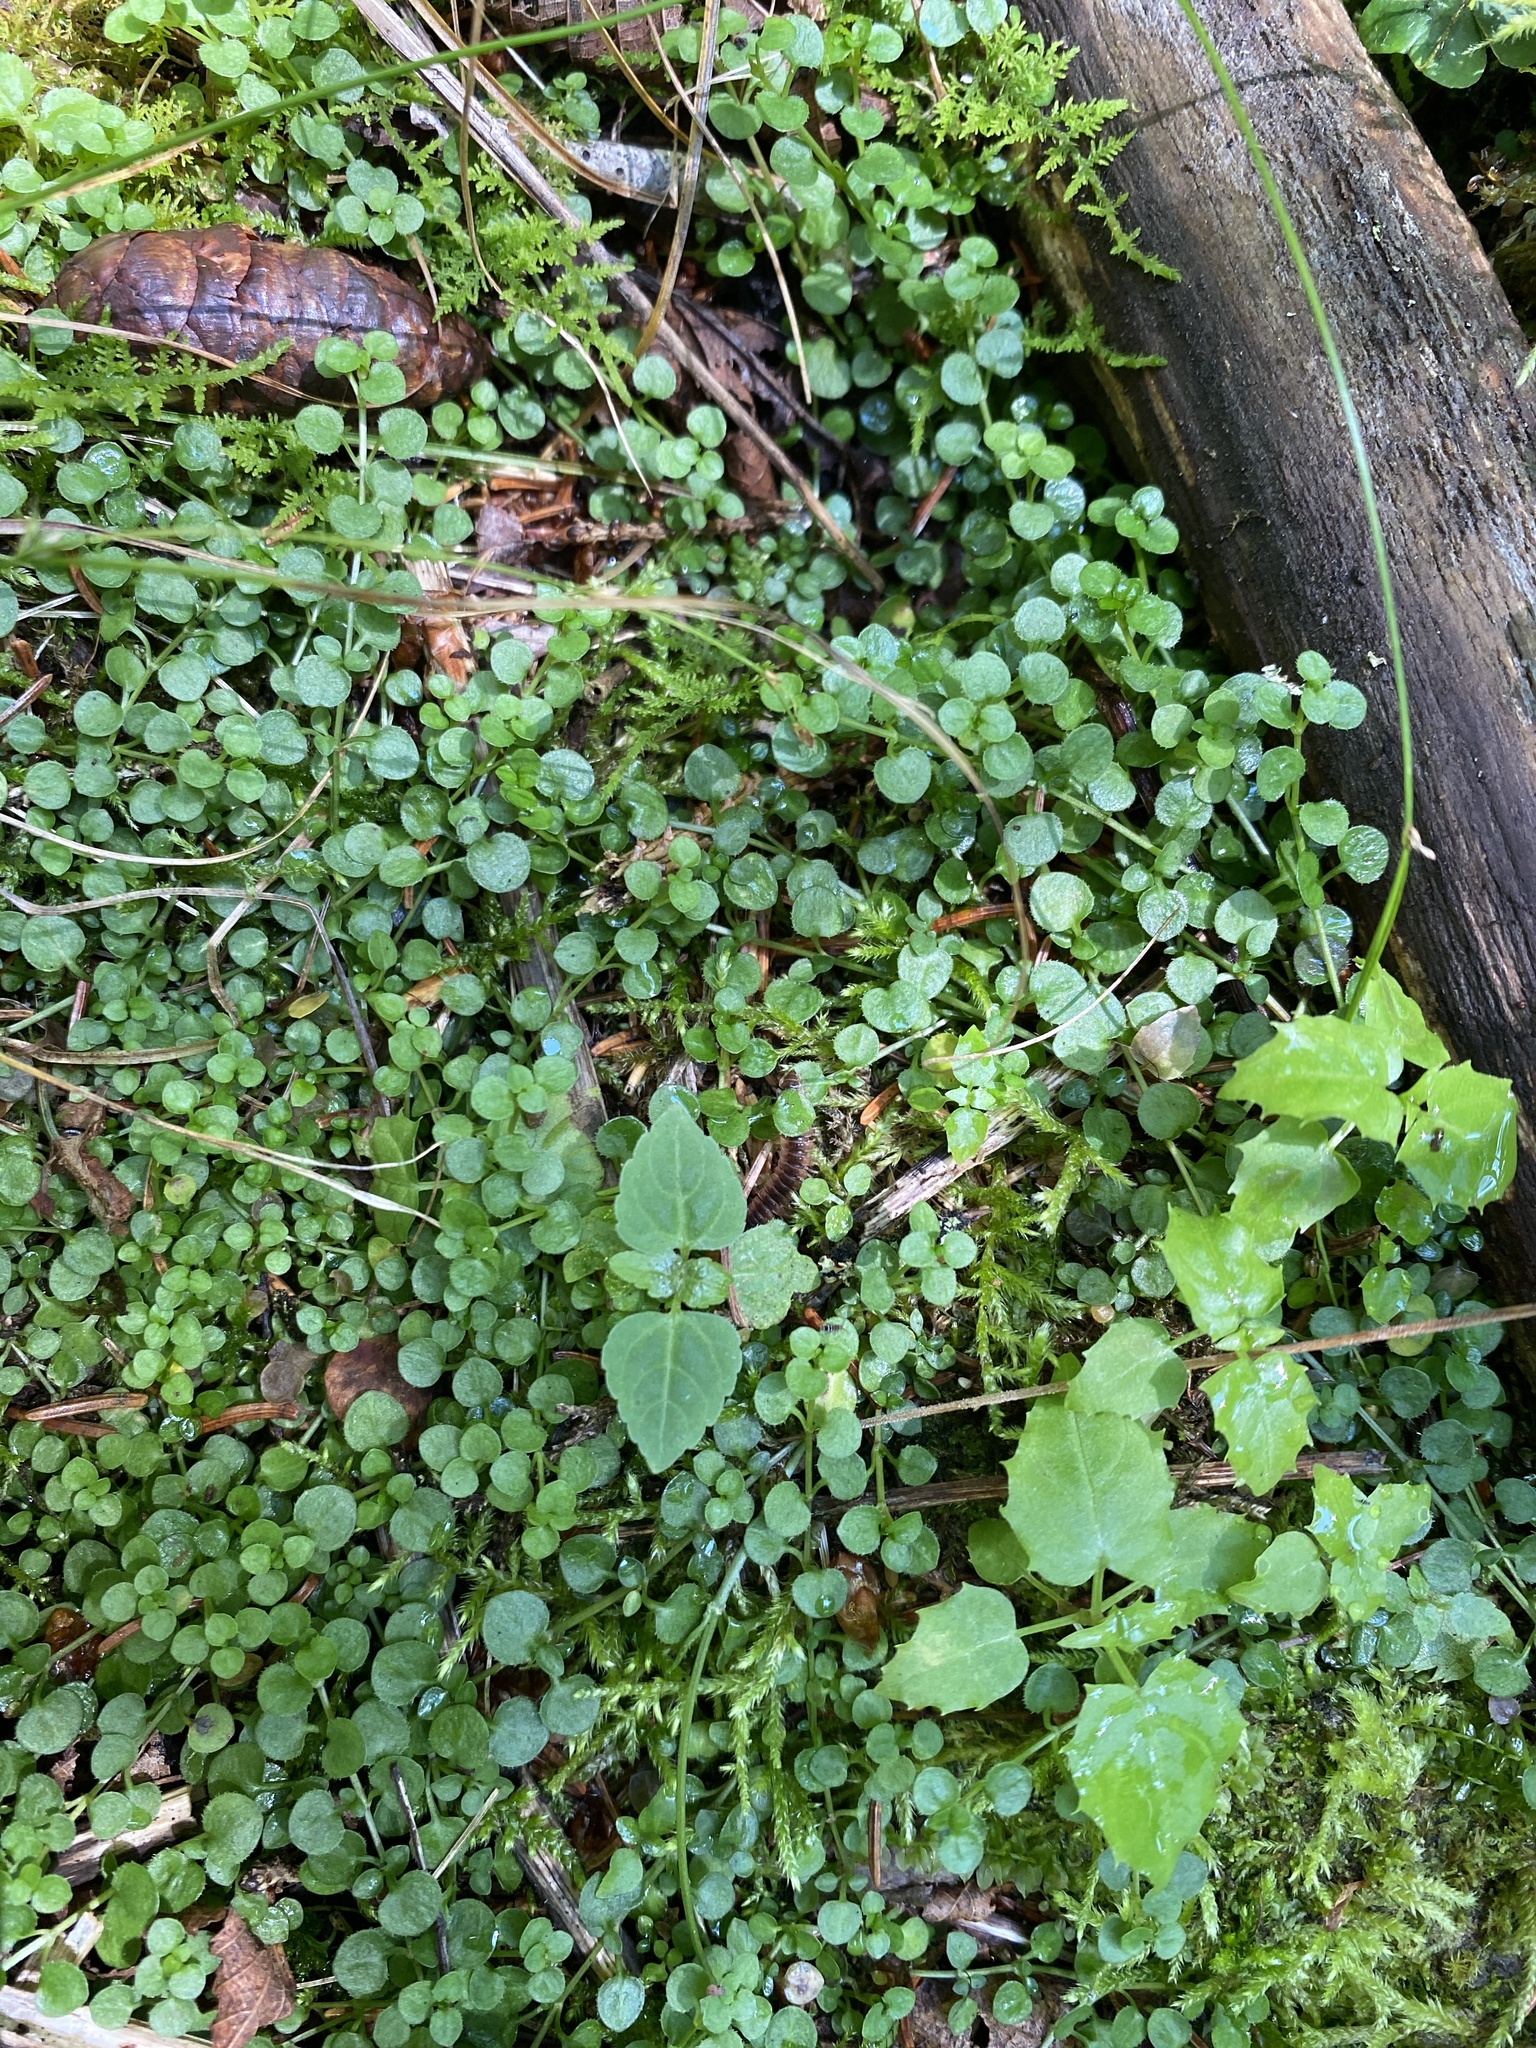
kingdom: Plantae
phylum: Tracheophyta
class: Magnoliopsida
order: Gentianales
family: Rubiaceae
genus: Houstonia
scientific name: Houstonia serpyllifolia
